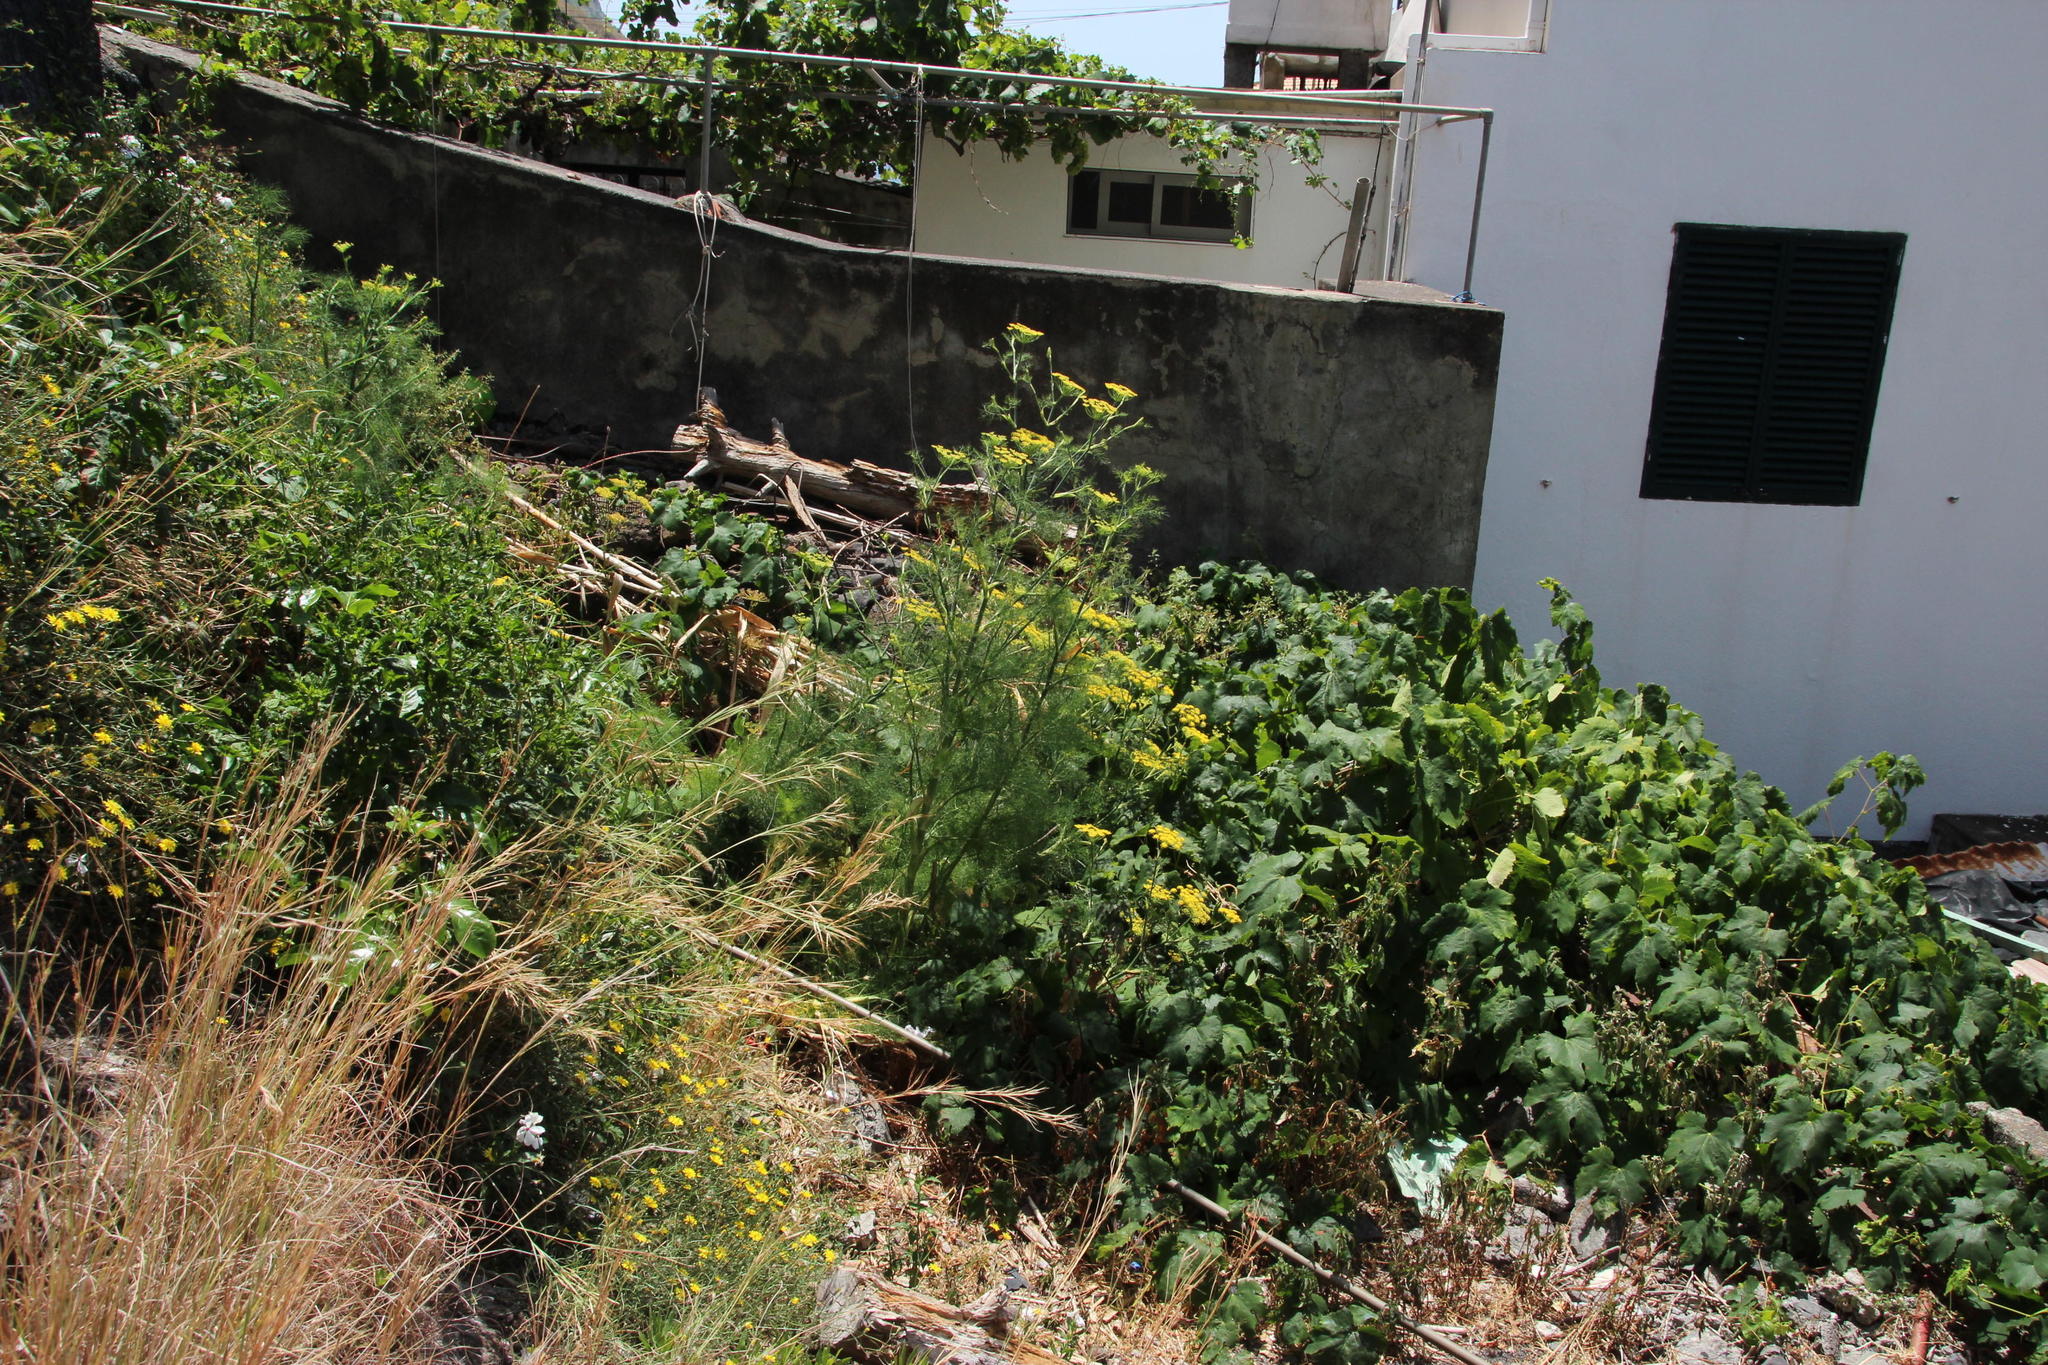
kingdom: Plantae
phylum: Tracheophyta
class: Magnoliopsida
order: Apiales
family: Apiaceae
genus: Foeniculum
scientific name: Foeniculum vulgare
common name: Fennel
